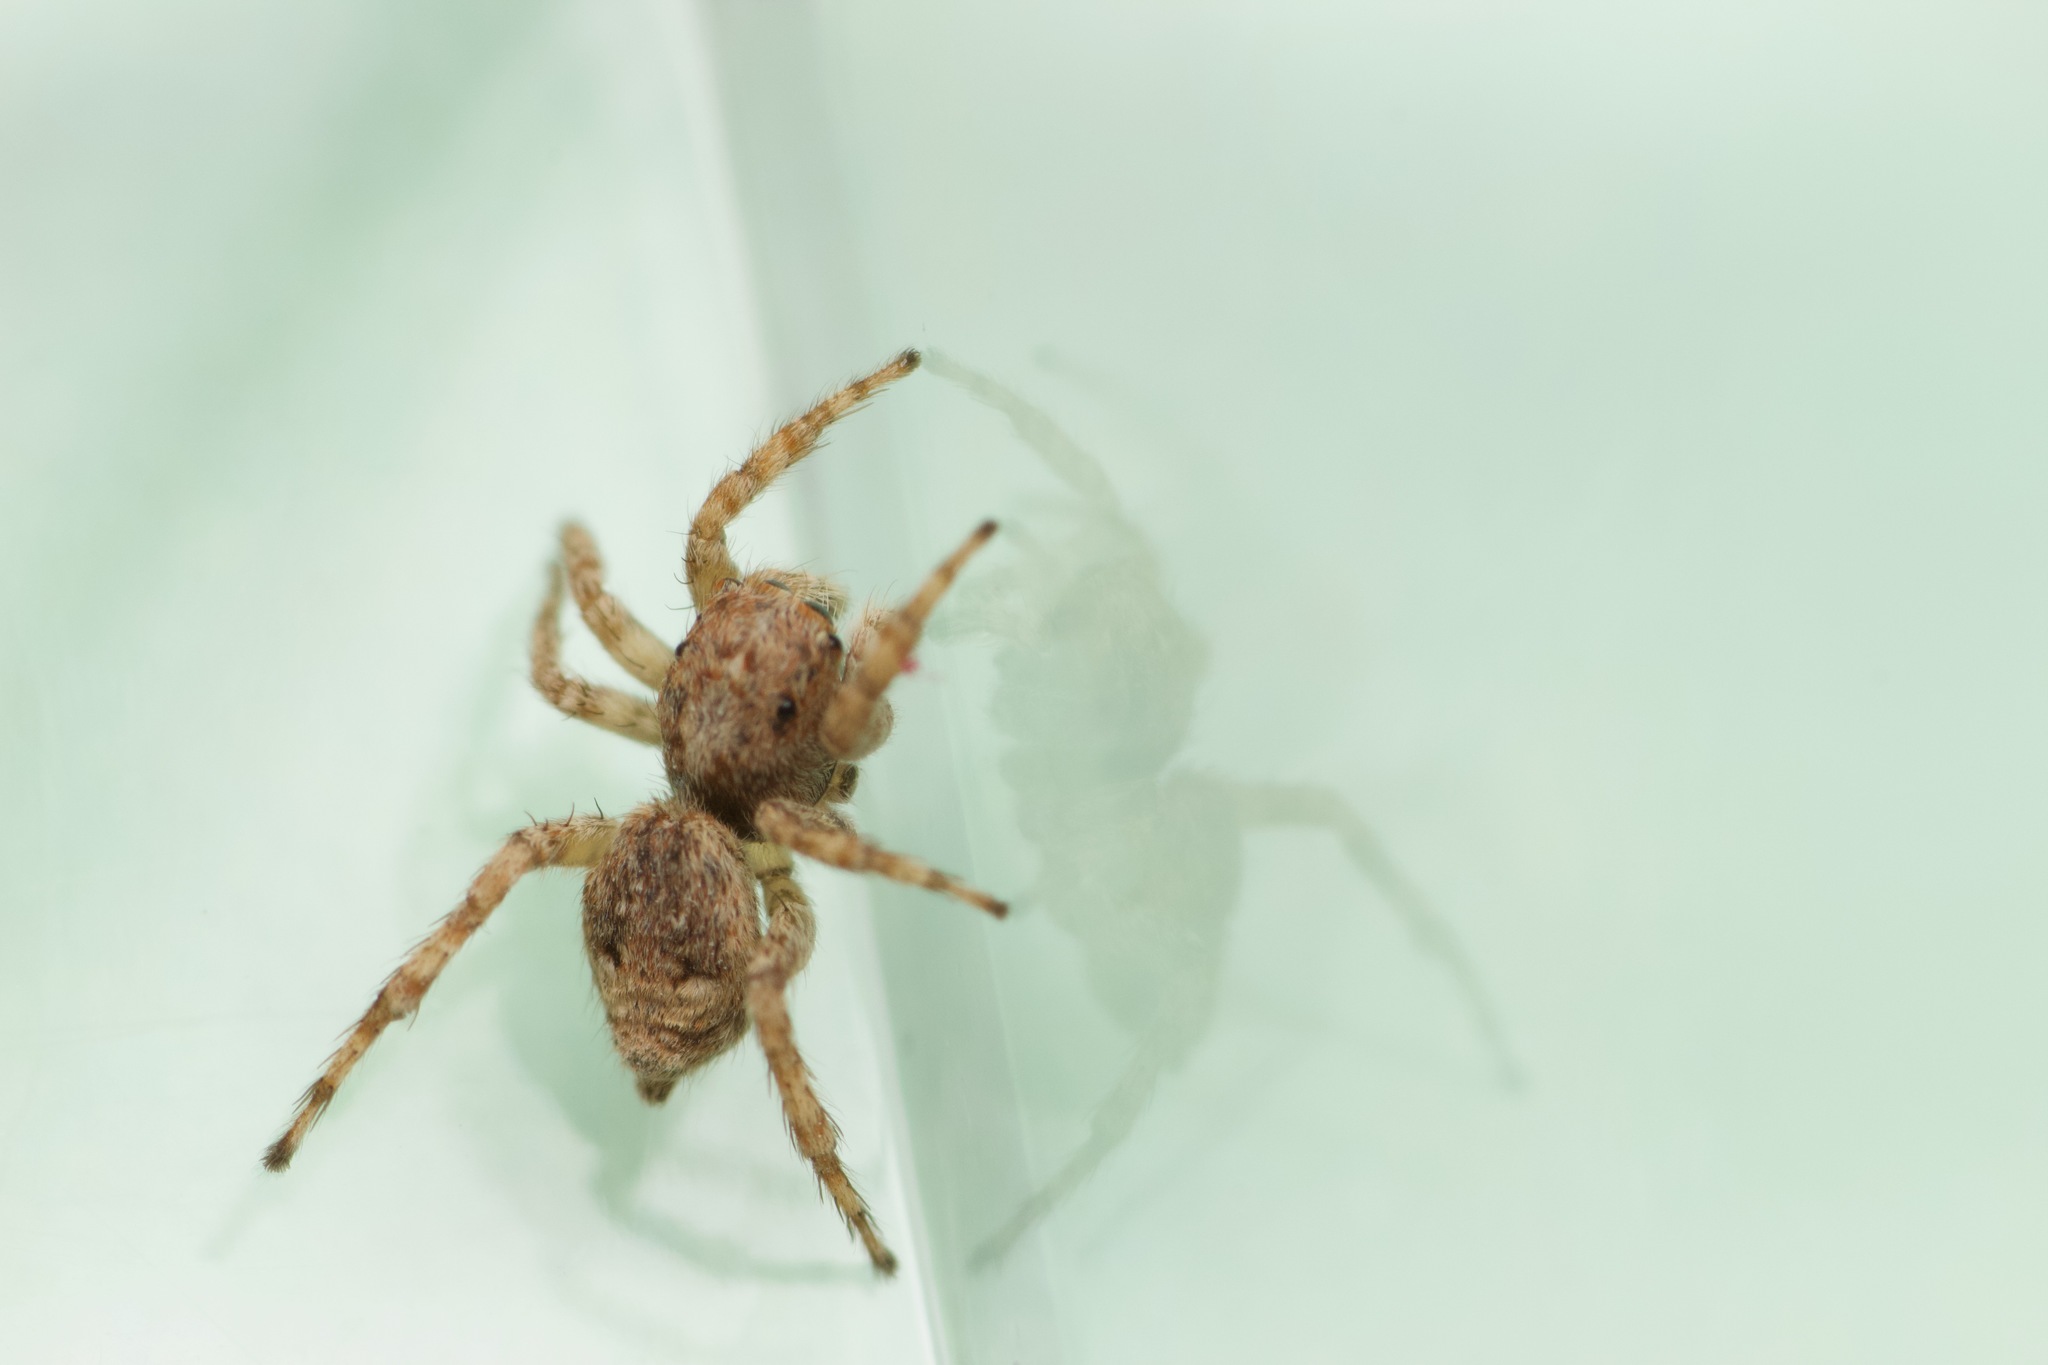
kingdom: Animalia
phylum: Arthropoda
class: Arachnida
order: Araneae
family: Salticidae
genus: Attulus
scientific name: Attulus fasciger
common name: Asiatic wall jumping spider
